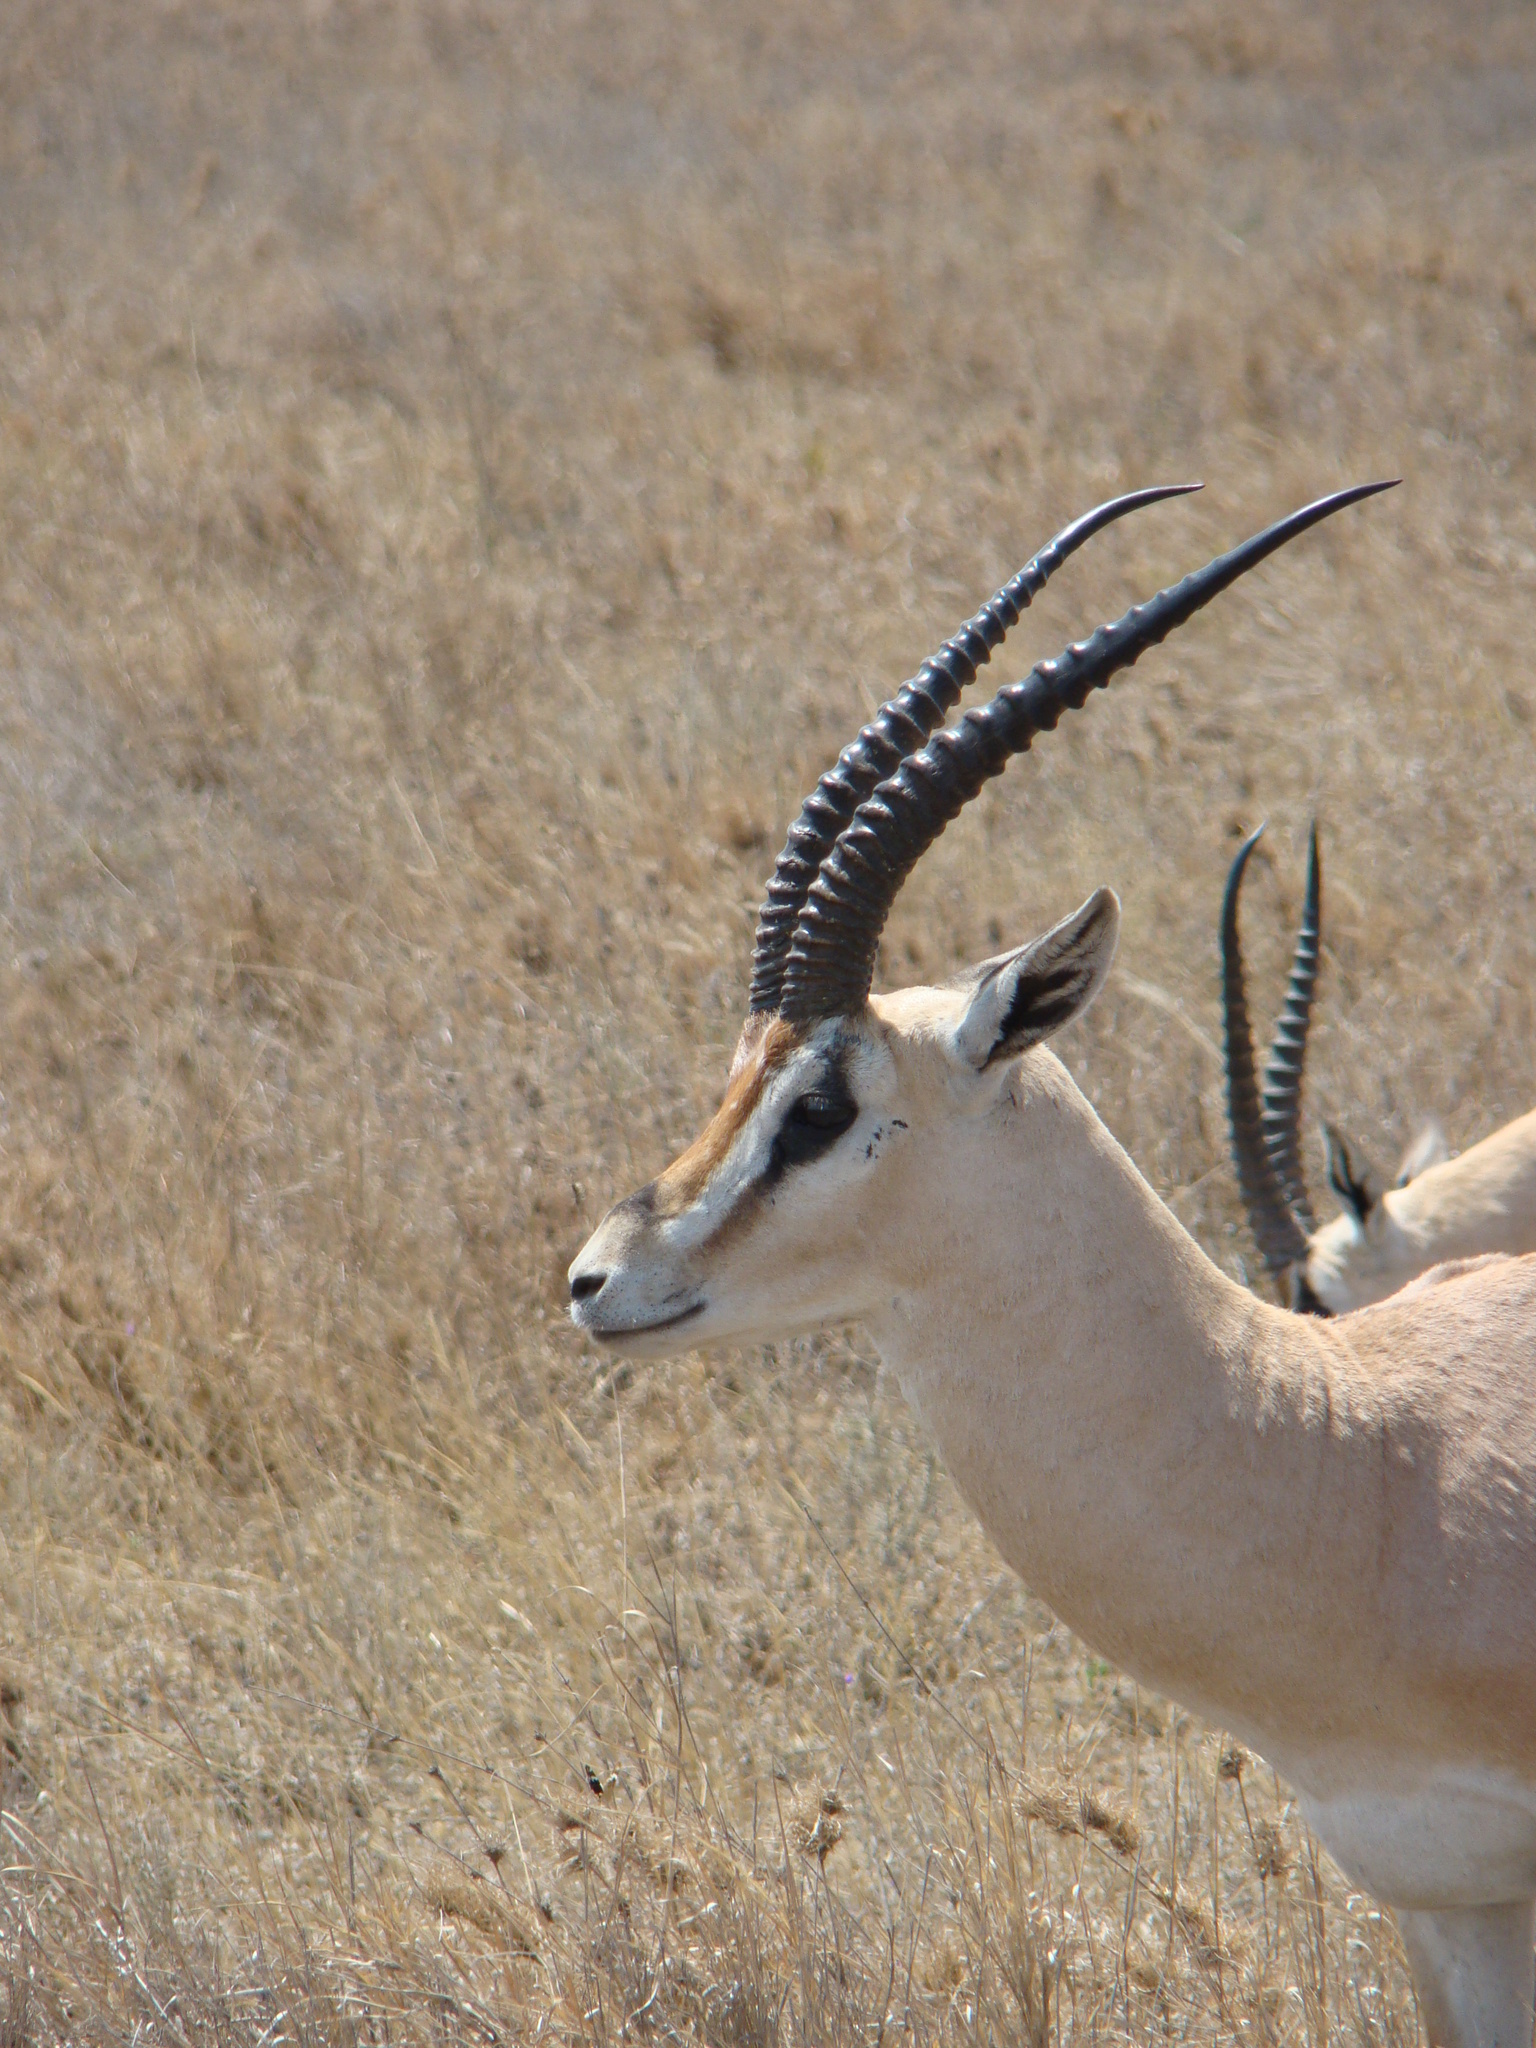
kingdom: Animalia
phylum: Chordata
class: Mammalia
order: Artiodactyla
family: Bovidae
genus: Nanger
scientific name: Nanger granti
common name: Grant's gazelle
